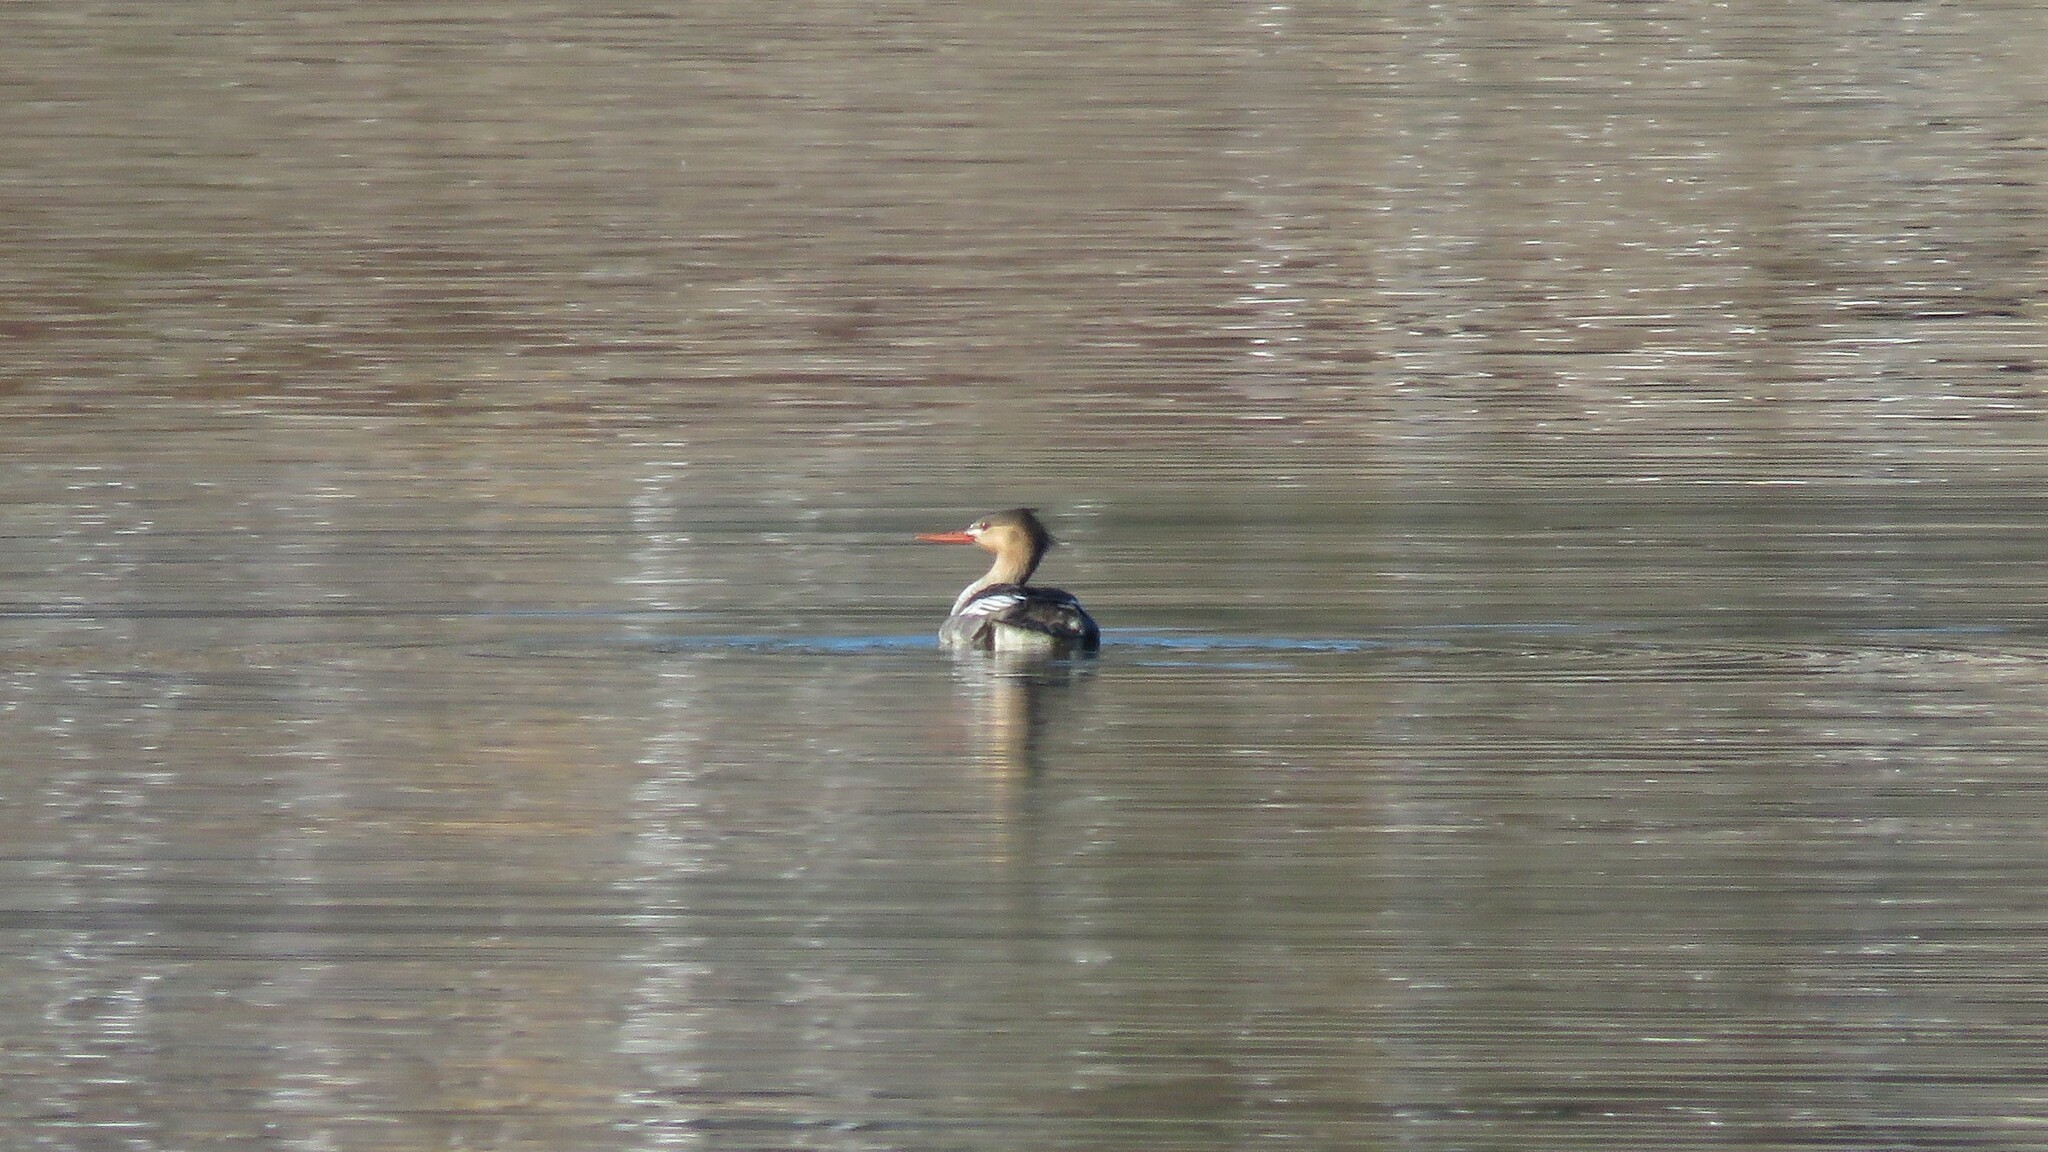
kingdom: Animalia
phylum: Chordata
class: Aves
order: Anseriformes
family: Anatidae
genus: Mergus
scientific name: Mergus serrator
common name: Red-breasted merganser
